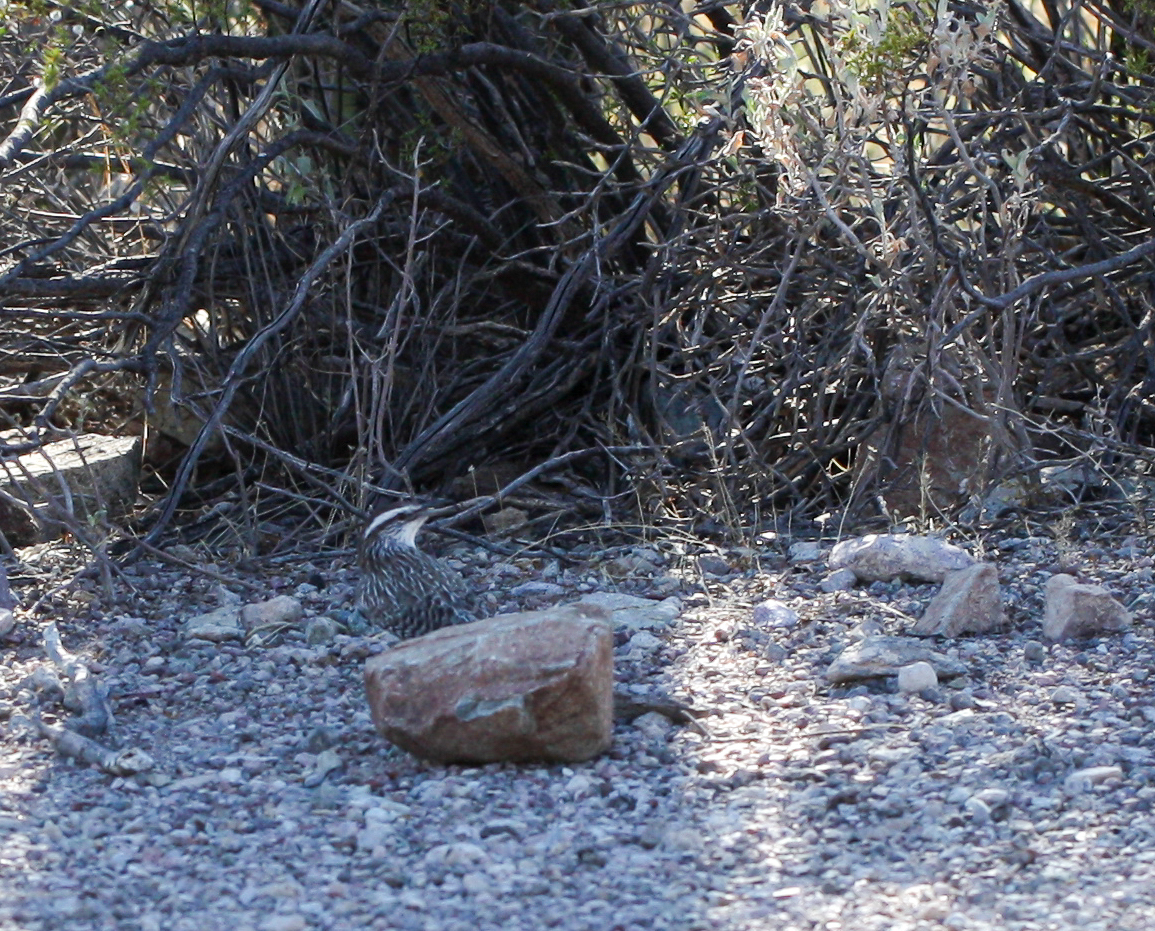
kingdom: Animalia
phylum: Chordata
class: Aves
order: Passeriformes
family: Troglodytidae
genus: Campylorhynchus
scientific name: Campylorhynchus brunneicapillus
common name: Cactus wren
